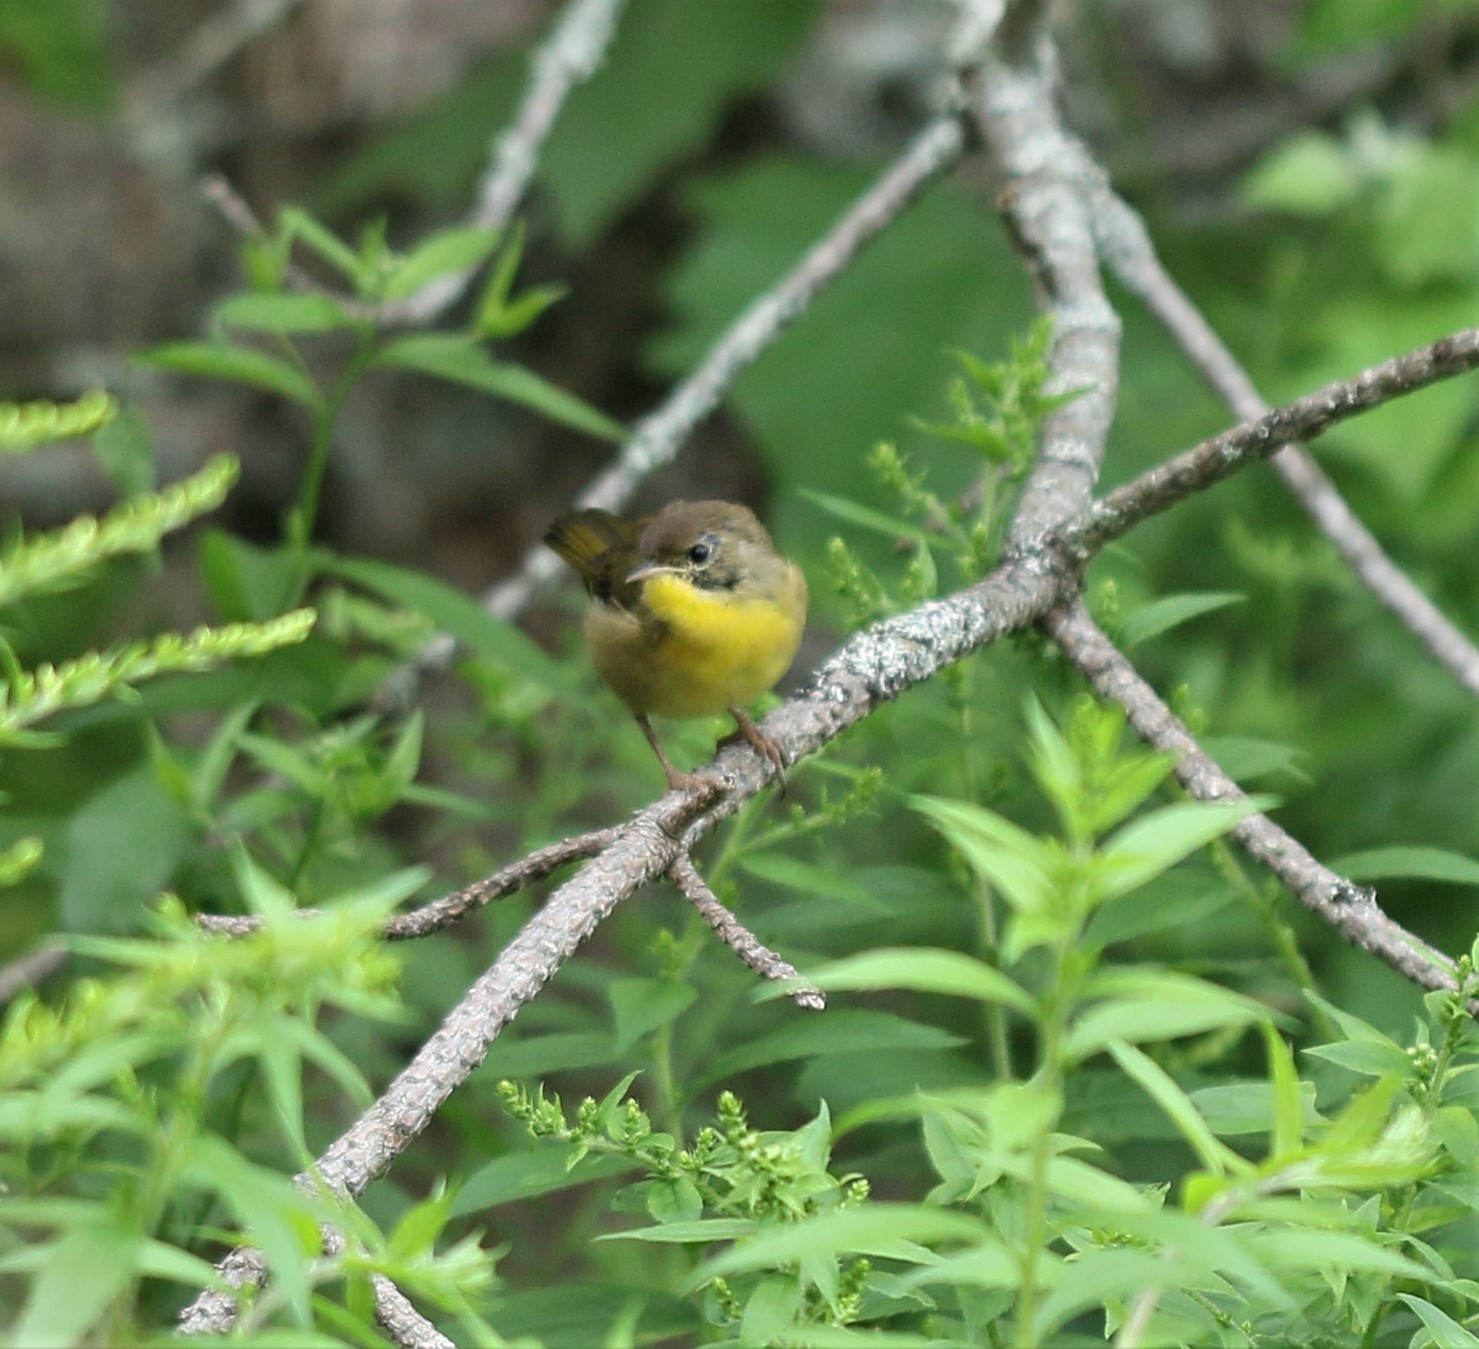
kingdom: Animalia
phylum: Chordata
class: Aves
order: Passeriformes
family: Parulidae
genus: Geothlypis
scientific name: Geothlypis trichas
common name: Common yellowthroat
